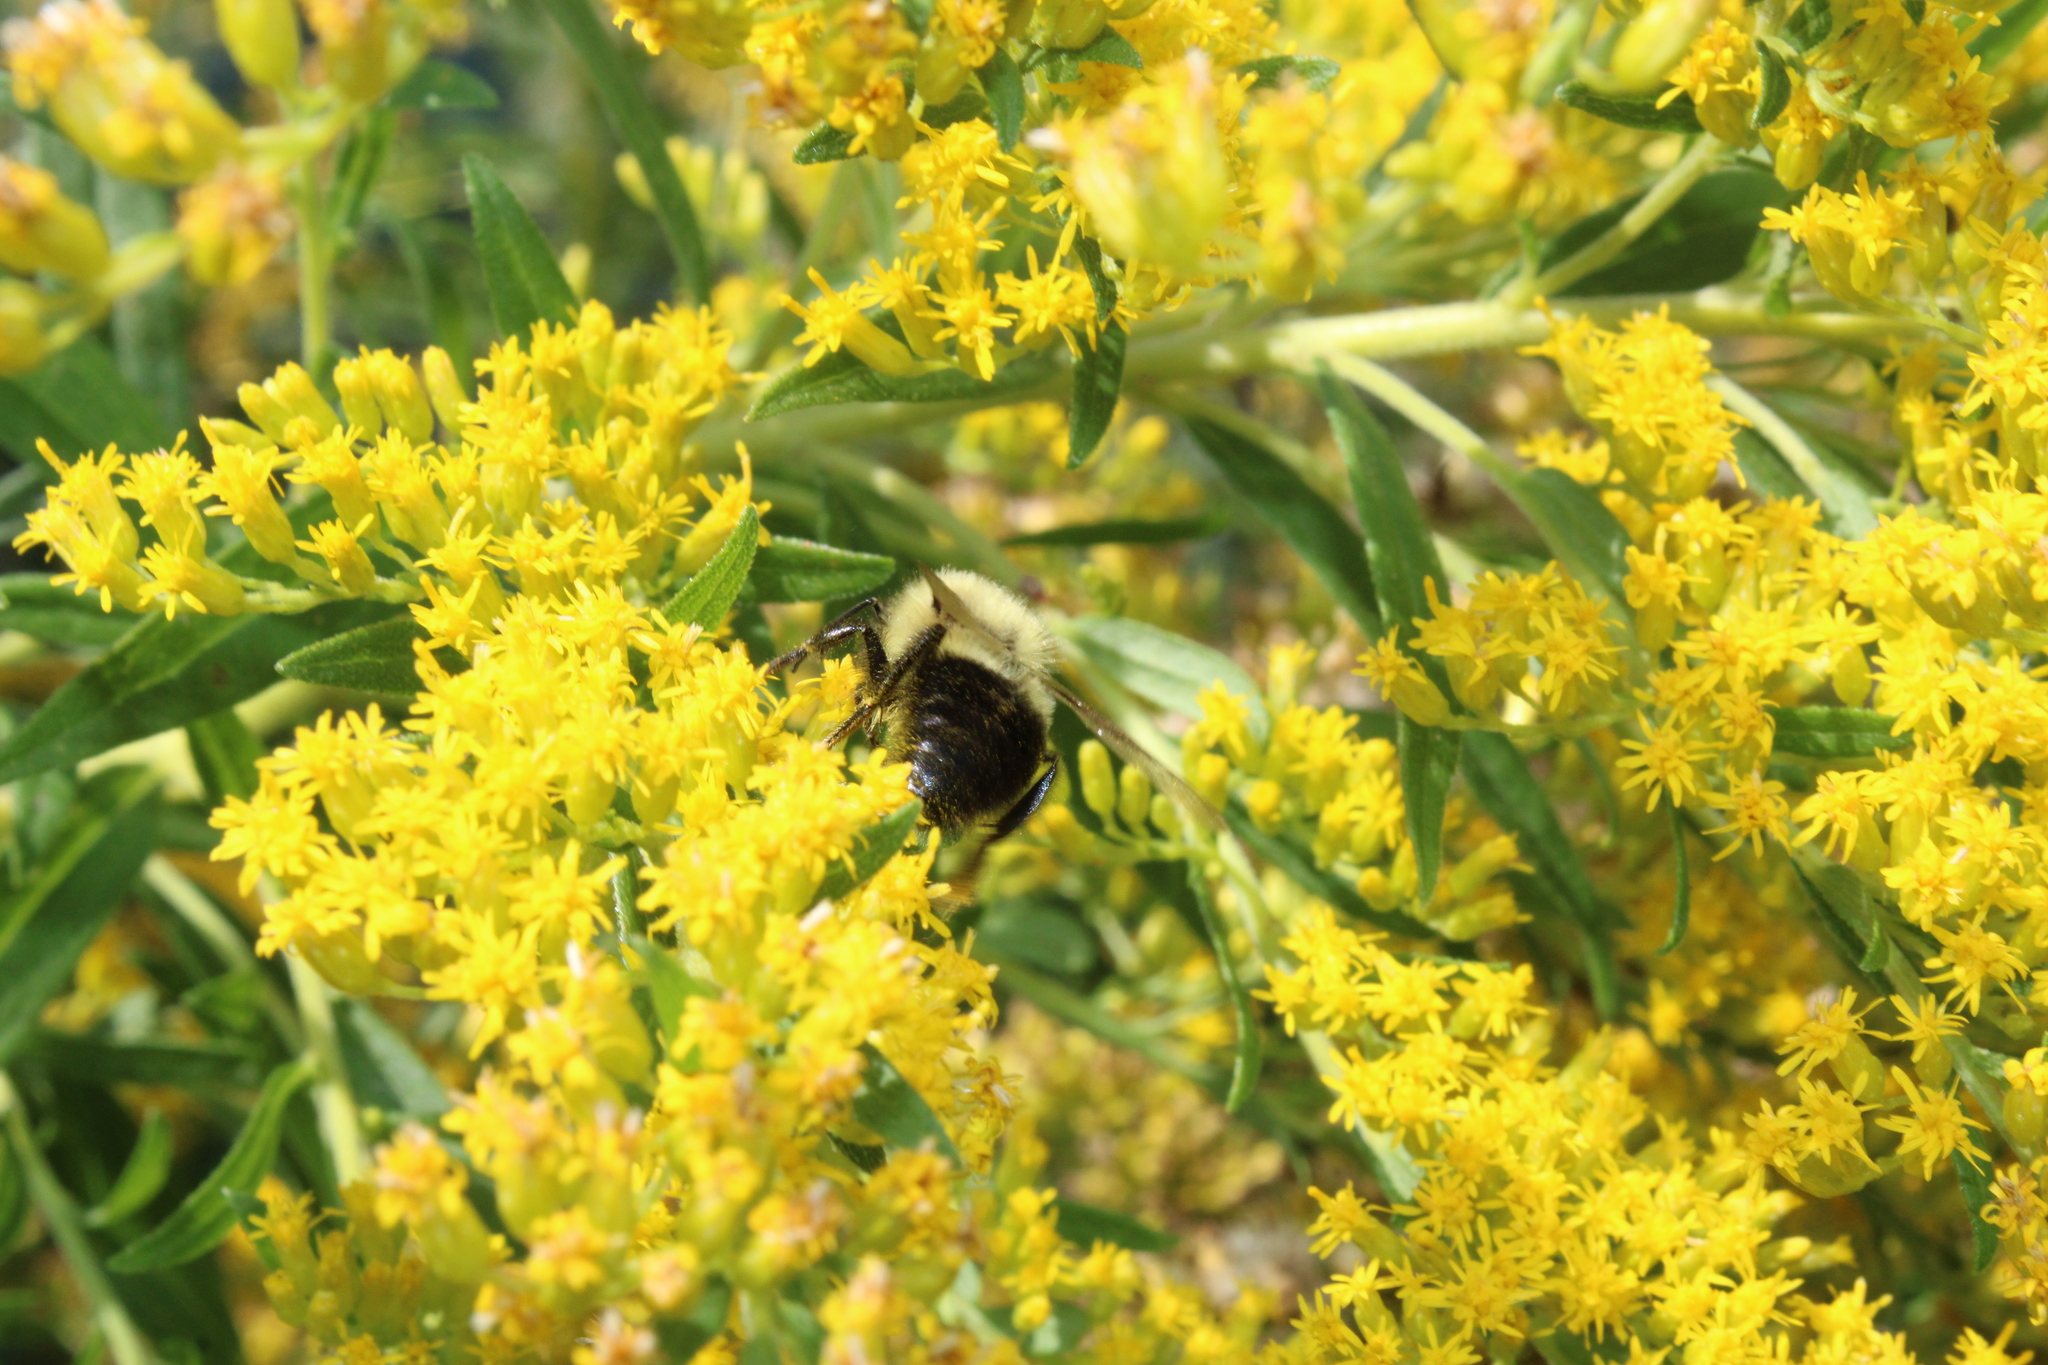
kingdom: Animalia
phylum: Arthropoda
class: Insecta
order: Hymenoptera
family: Apidae
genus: Bombus
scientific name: Bombus impatiens
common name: Common eastern bumble bee
